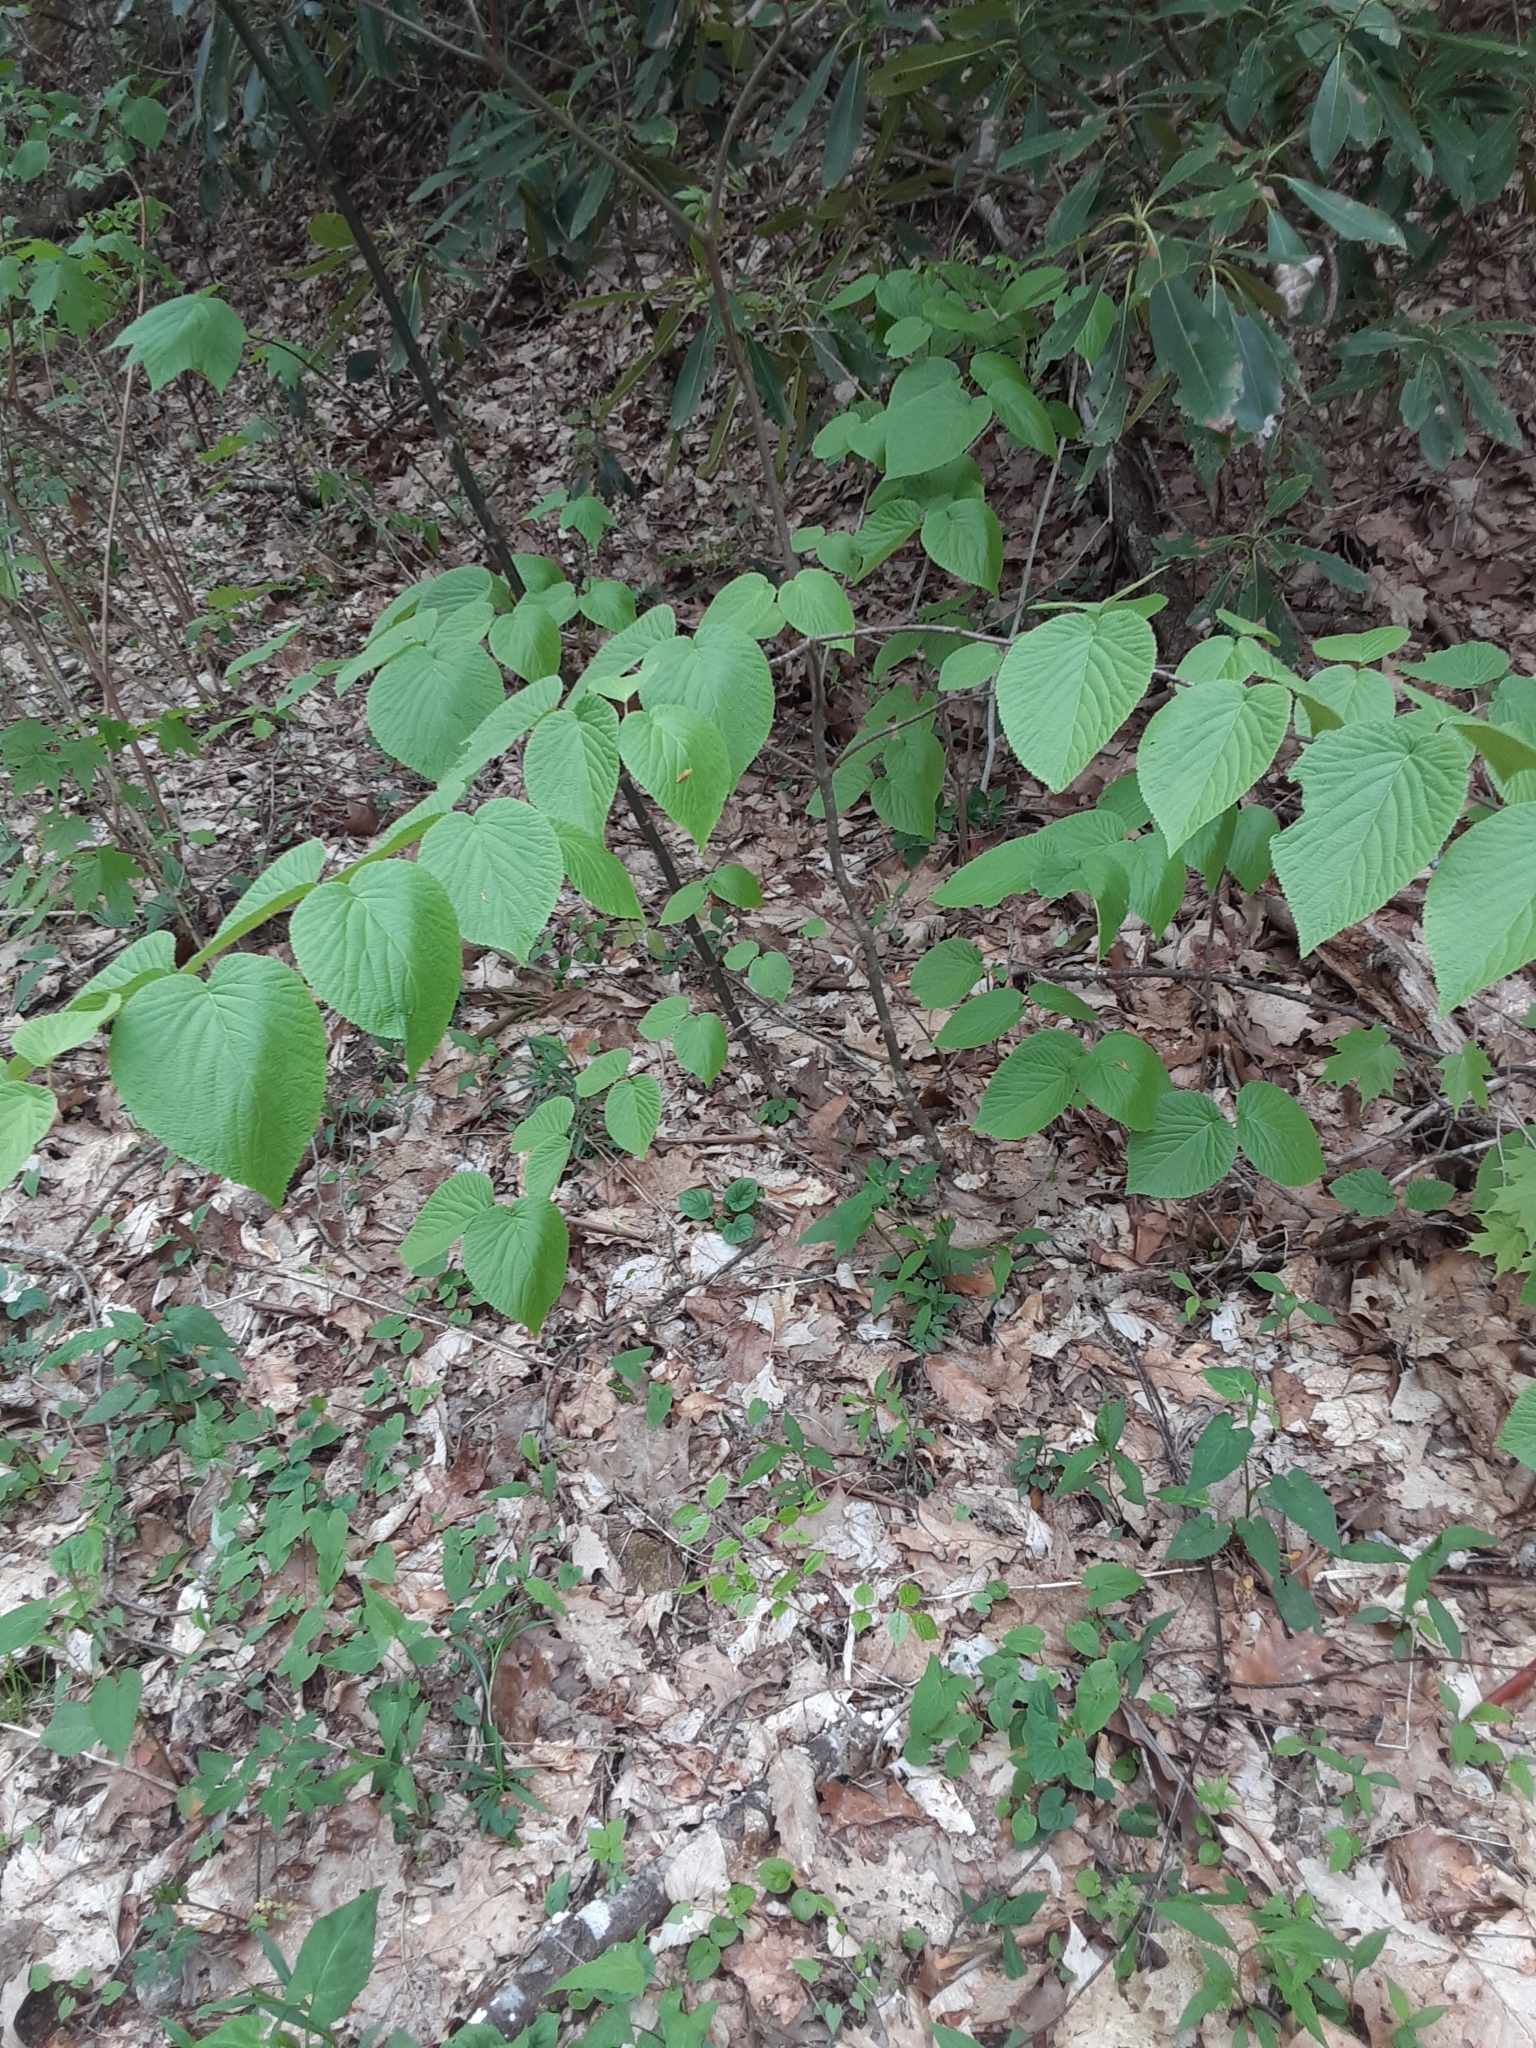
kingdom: Plantae
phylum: Tracheophyta
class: Magnoliopsida
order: Dipsacales
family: Viburnaceae
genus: Viburnum
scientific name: Viburnum lantanoides
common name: Hobblebush
